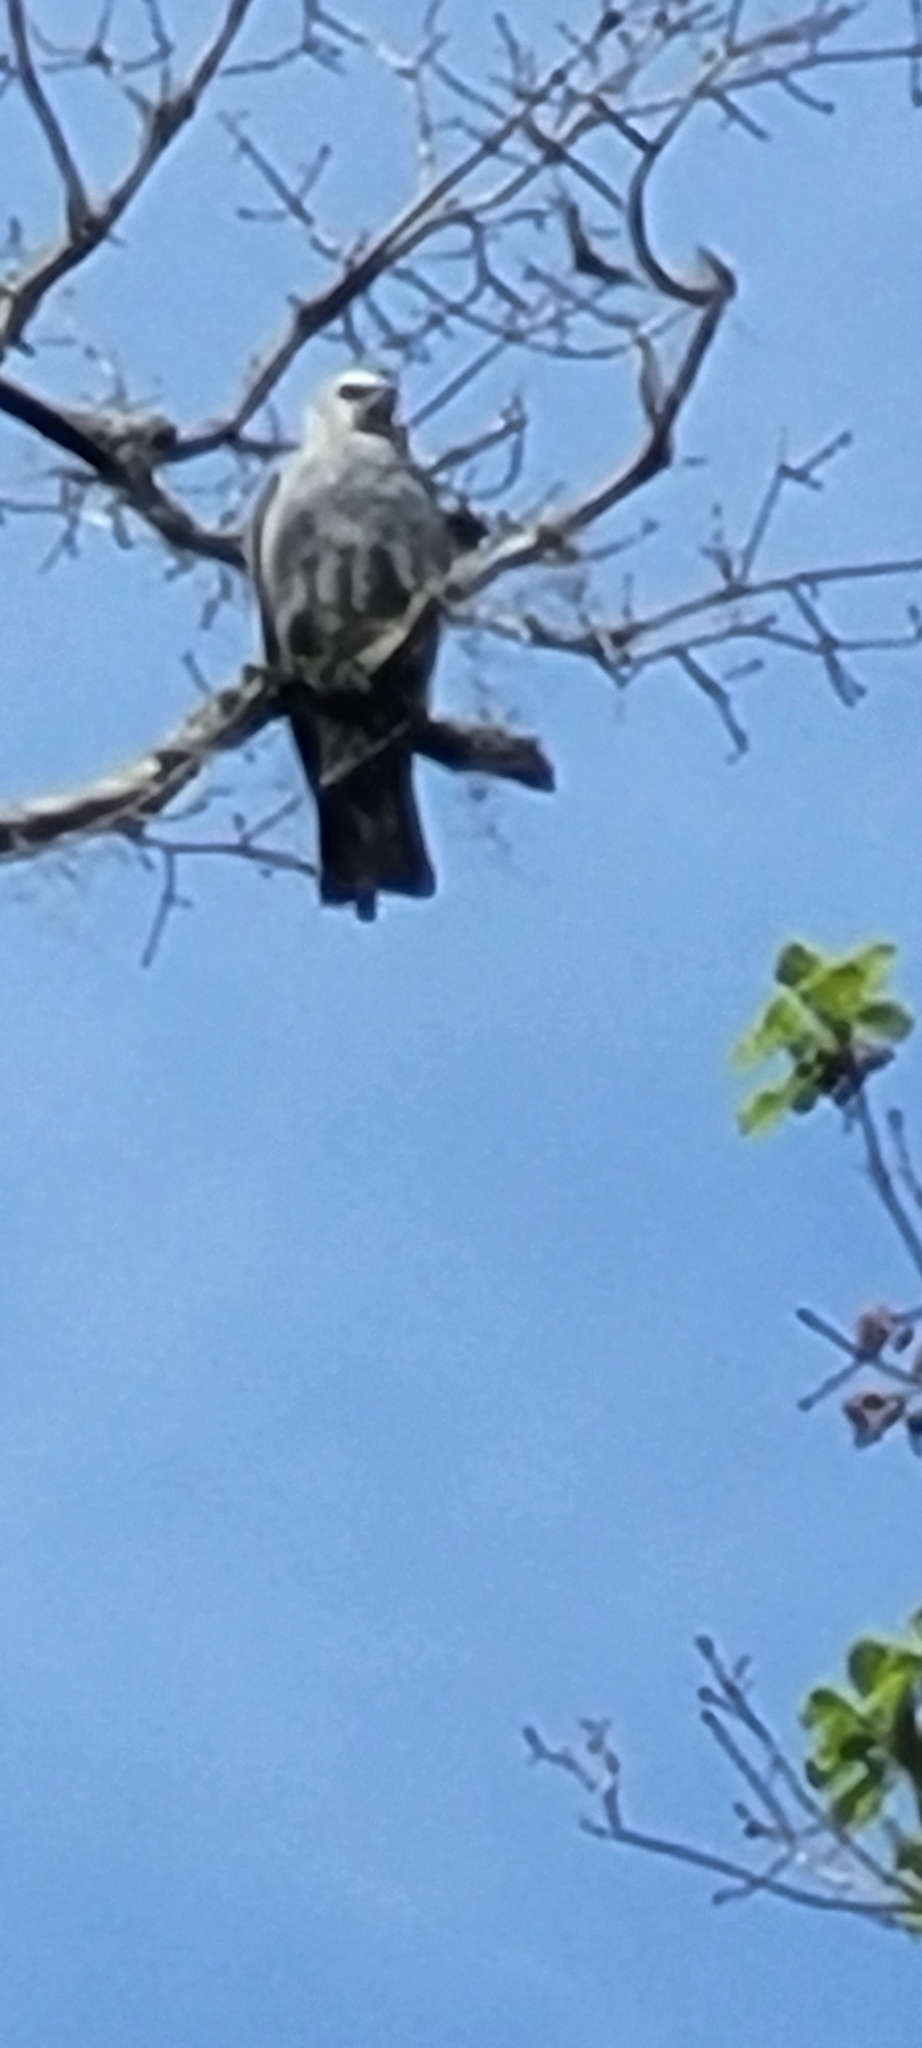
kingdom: Animalia
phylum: Chordata
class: Aves
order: Accipitriformes
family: Accipitridae
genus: Ictinia
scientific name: Ictinia mississippiensis
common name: Mississippi kite
